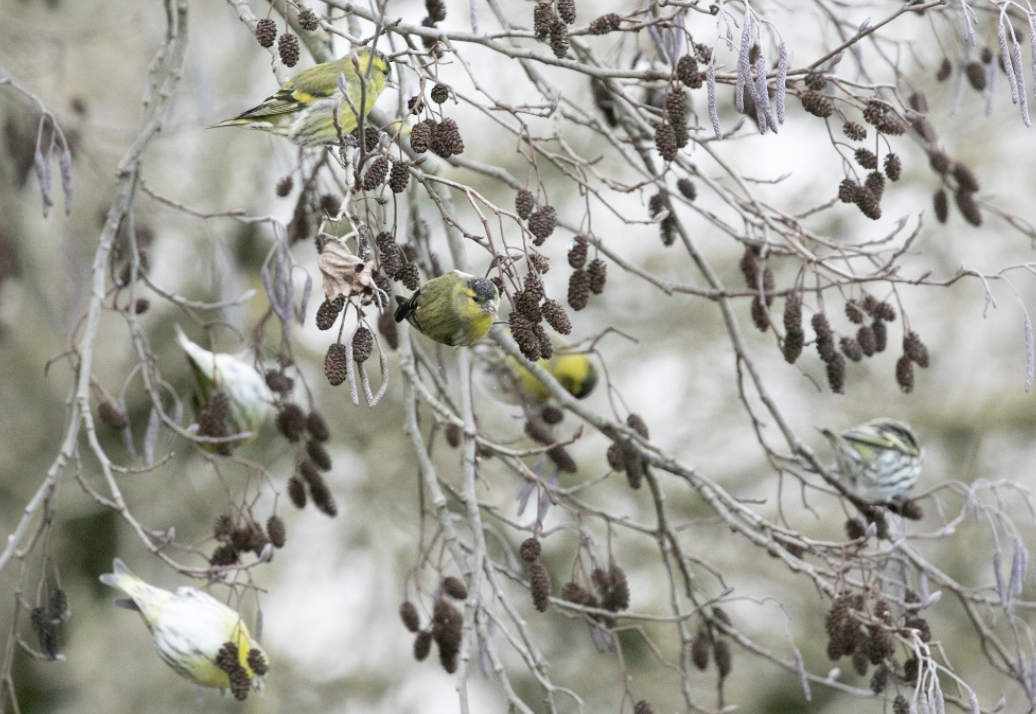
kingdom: Animalia
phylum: Chordata
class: Aves
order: Passeriformes
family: Fringillidae
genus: Spinus
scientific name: Spinus spinus
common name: Eurasian siskin
